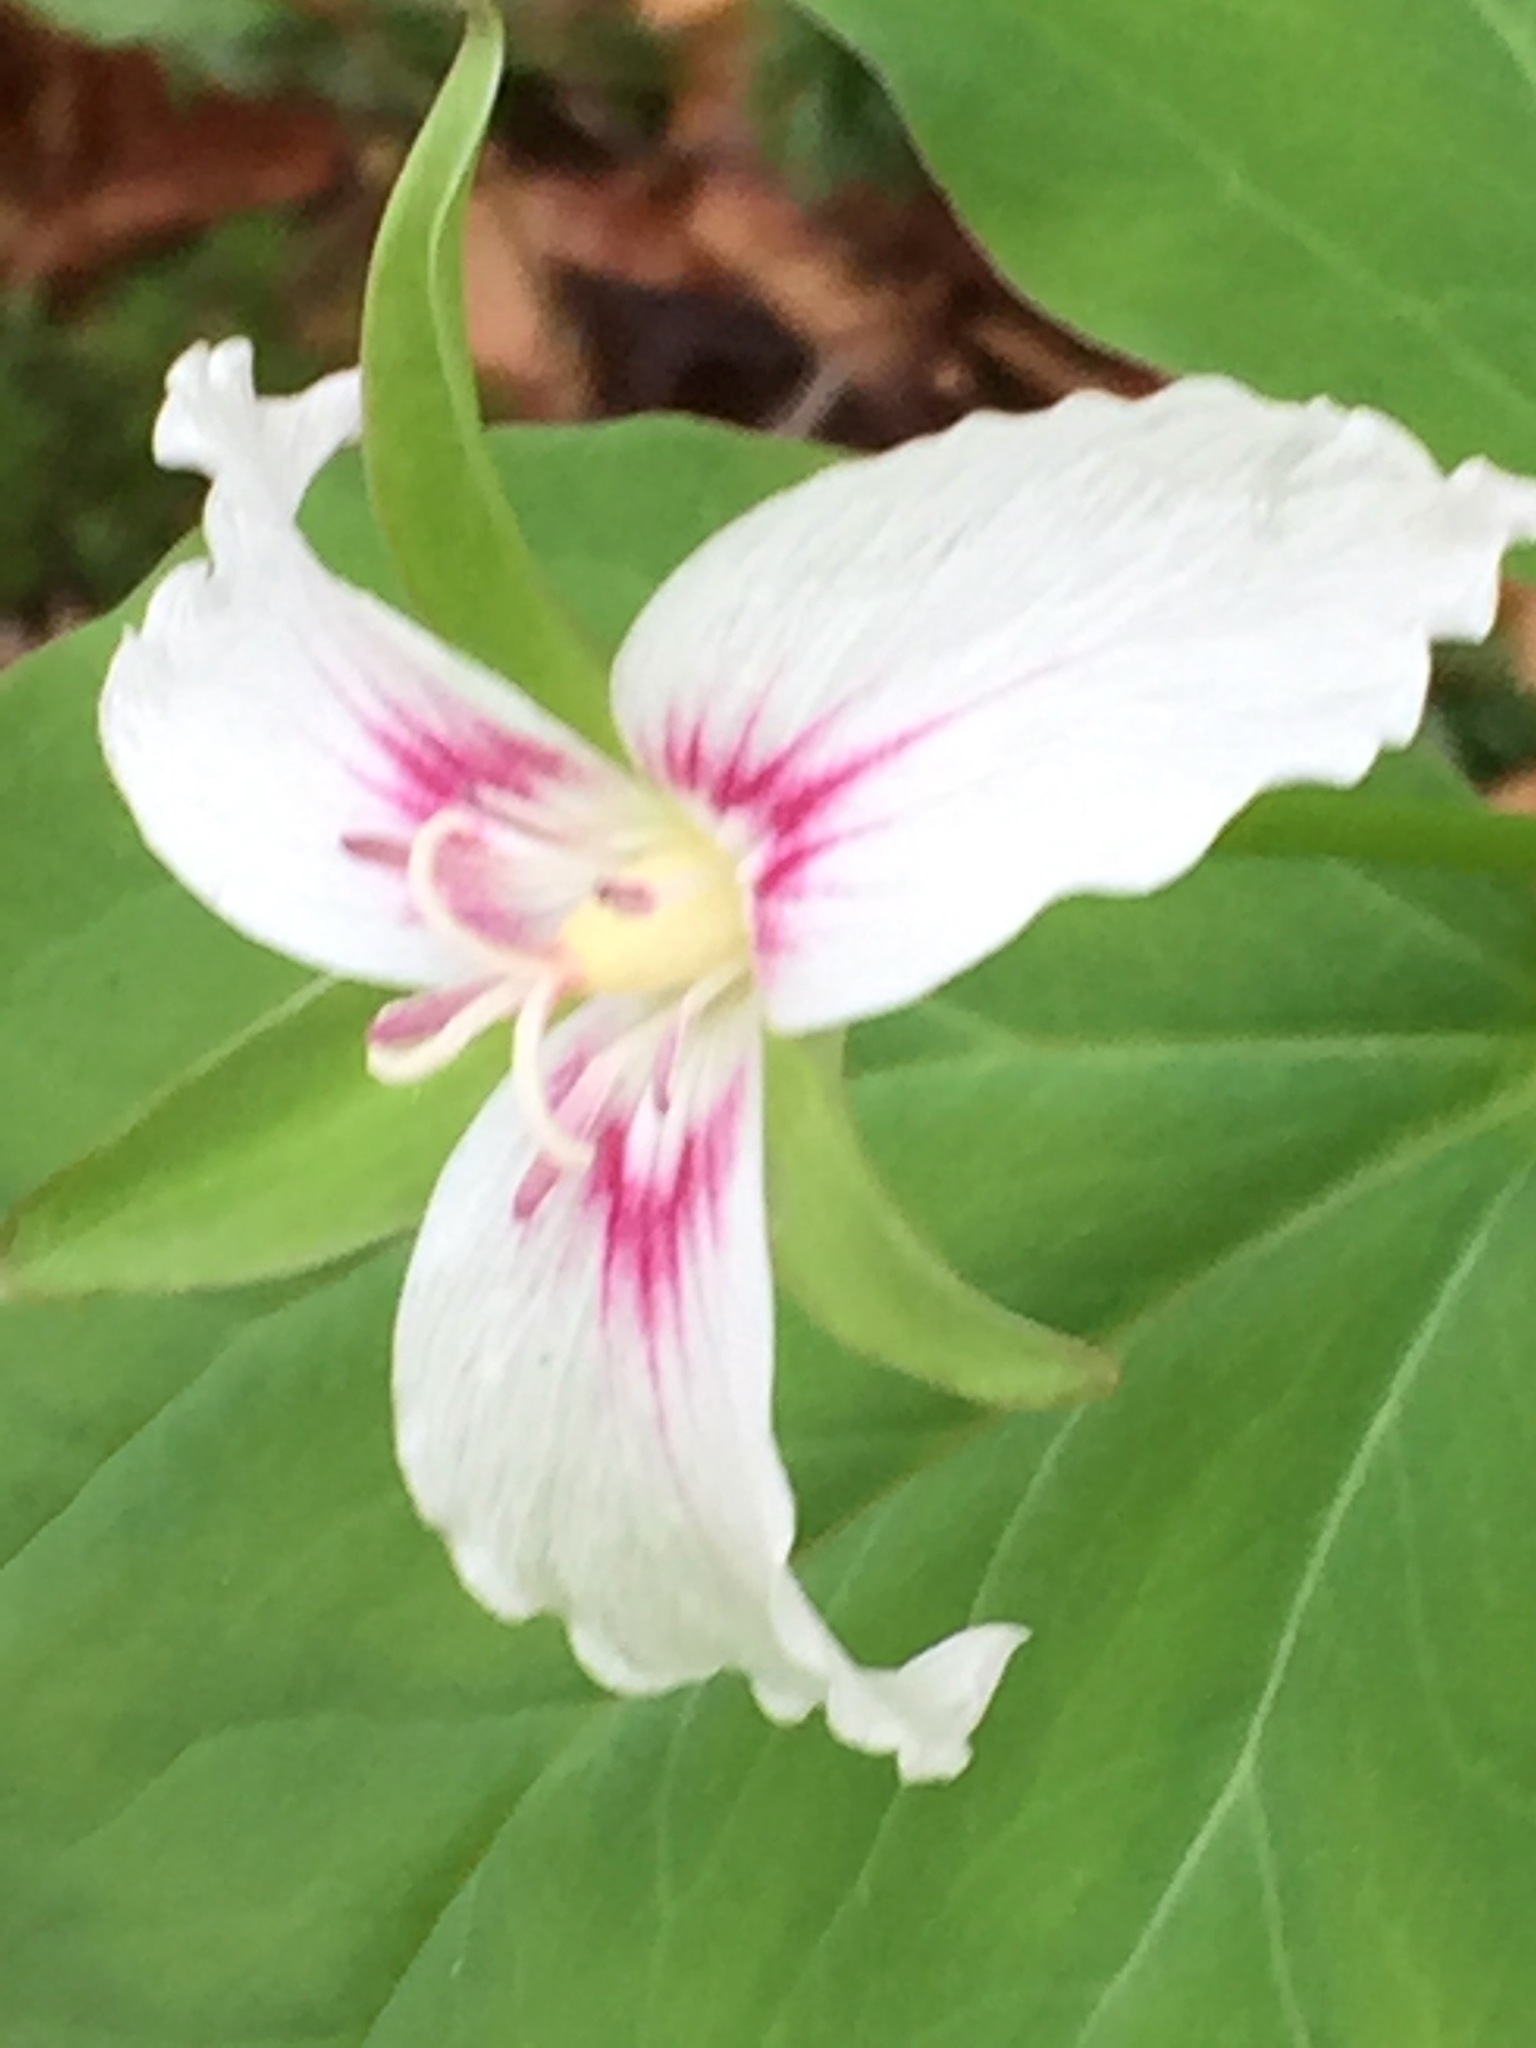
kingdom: Plantae
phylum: Tracheophyta
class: Liliopsida
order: Liliales
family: Melanthiaceae
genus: Trillium
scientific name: Trillium undulatum
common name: Paint trillium
